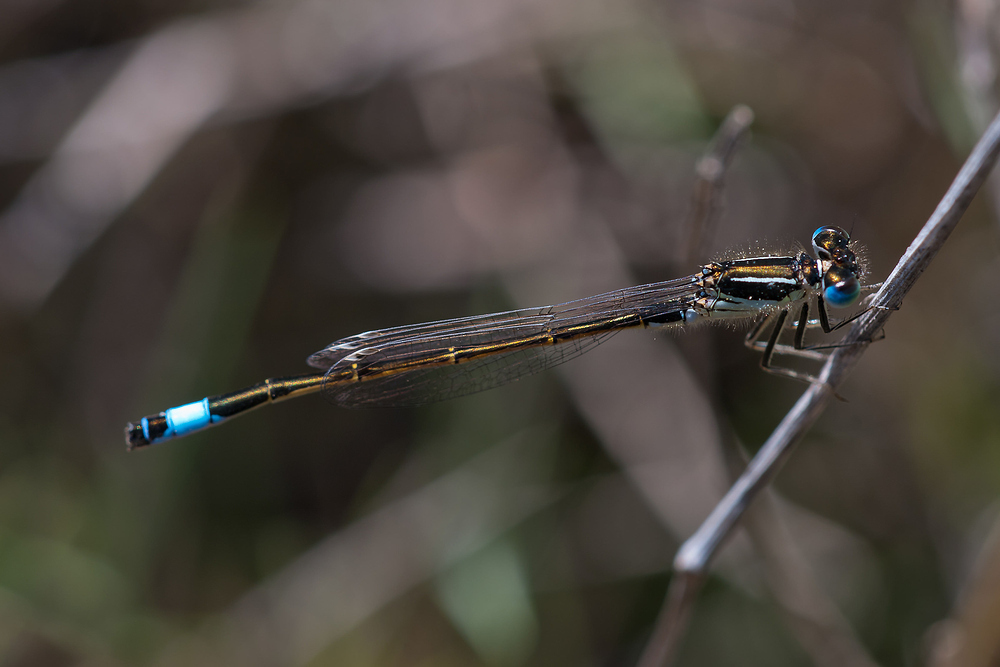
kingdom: Animalia
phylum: Arthropoda
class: Insecta
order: Odonata
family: Coenagrionidae
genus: Ischnura
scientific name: Ischnura graellsii
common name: Iberian bluetail
